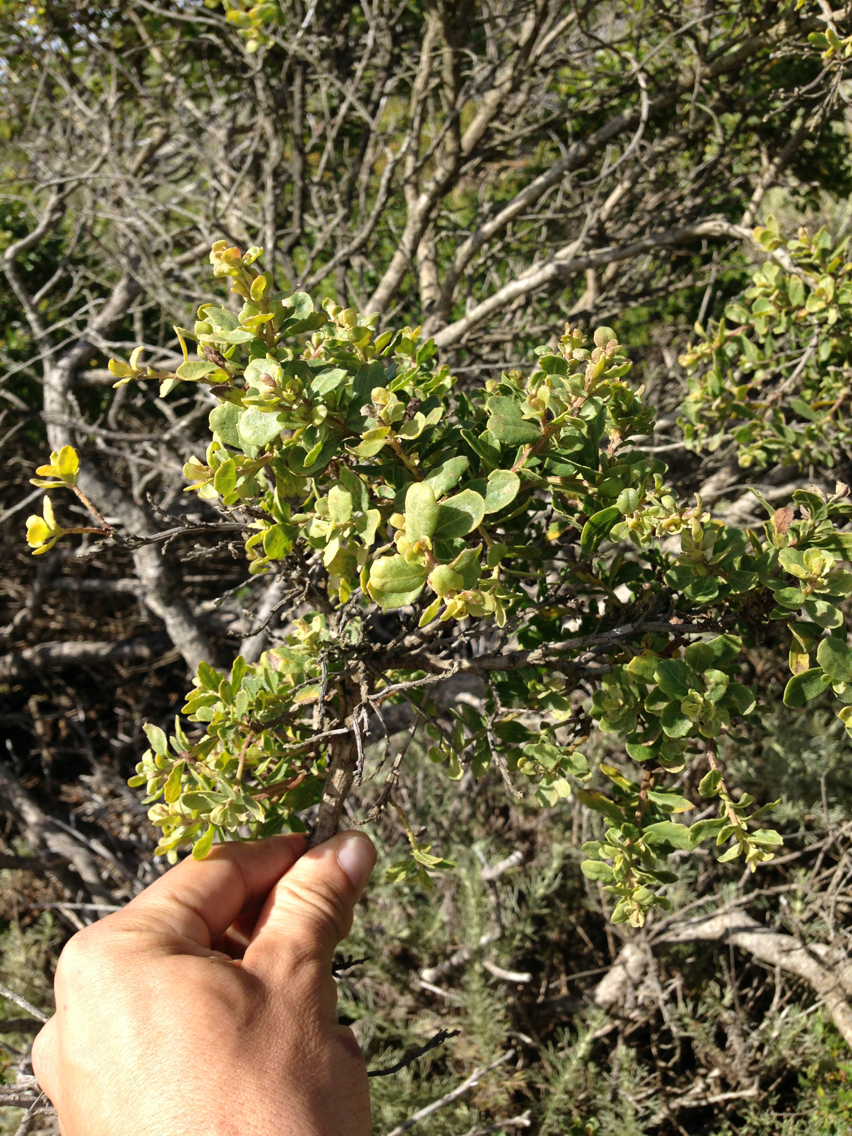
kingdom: Plantae
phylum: Tracheophyta
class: Magnoliopsida
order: Asterales
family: Asteraceae
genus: Baccharis
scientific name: Baccharis pilularis
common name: Coyotebrush
